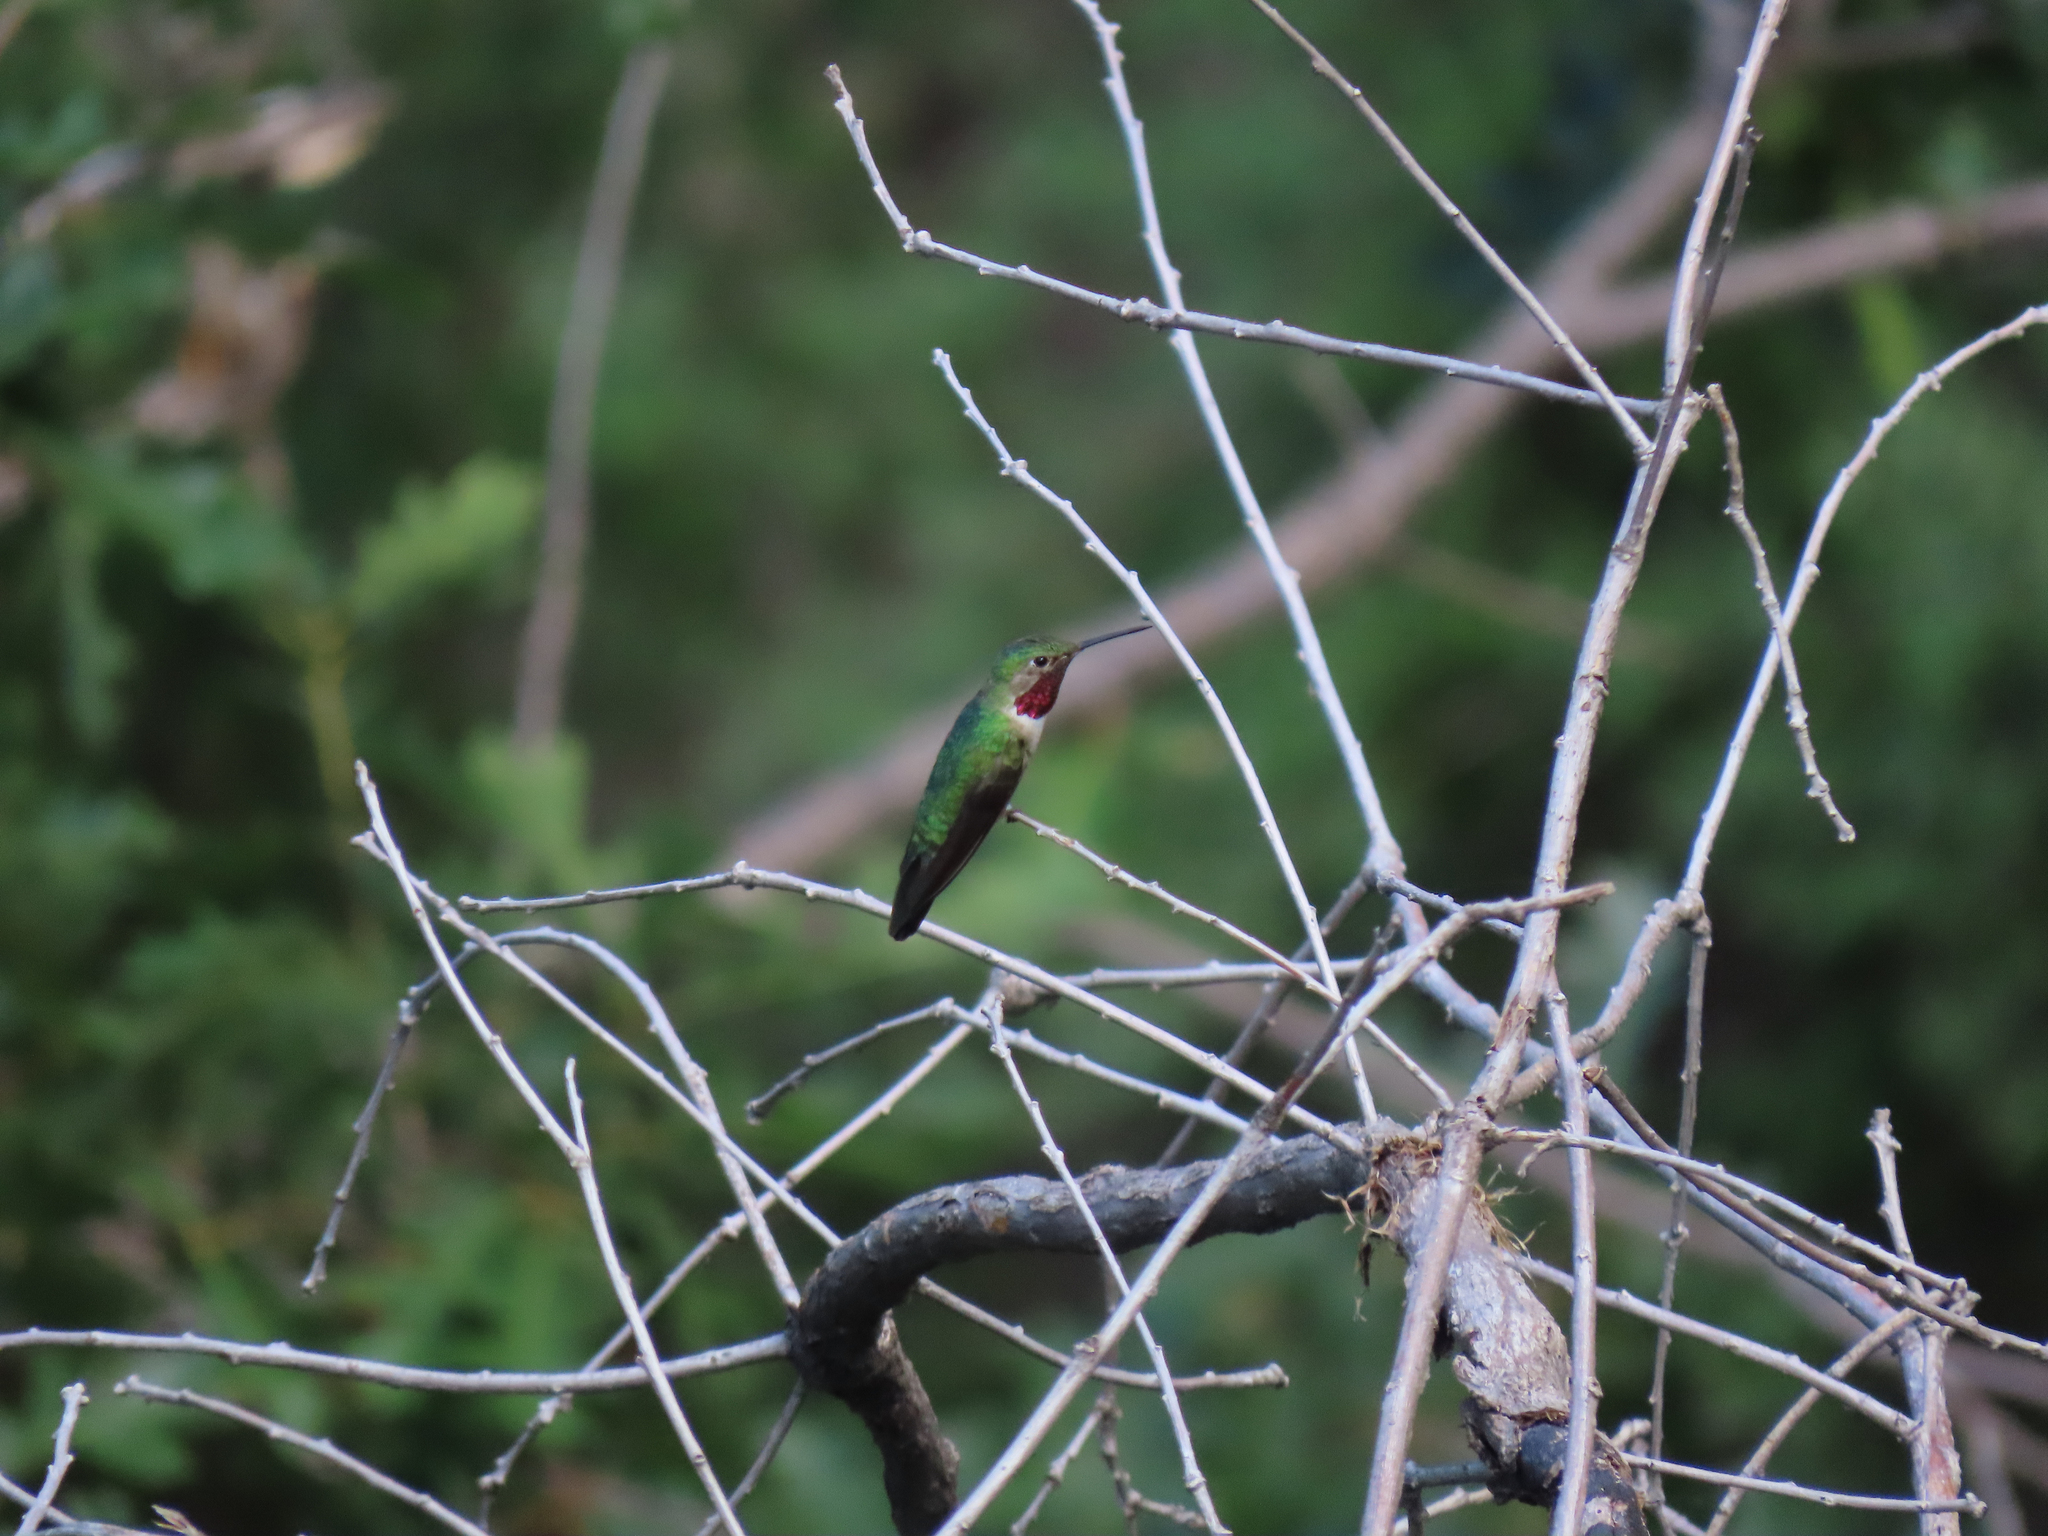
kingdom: Animalia
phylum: Chordata
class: Aves
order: Apodiformes
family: Trochilidae
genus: Selasphorus
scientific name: Selasphorus platycercus
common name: Broad-tailed hummingbird
